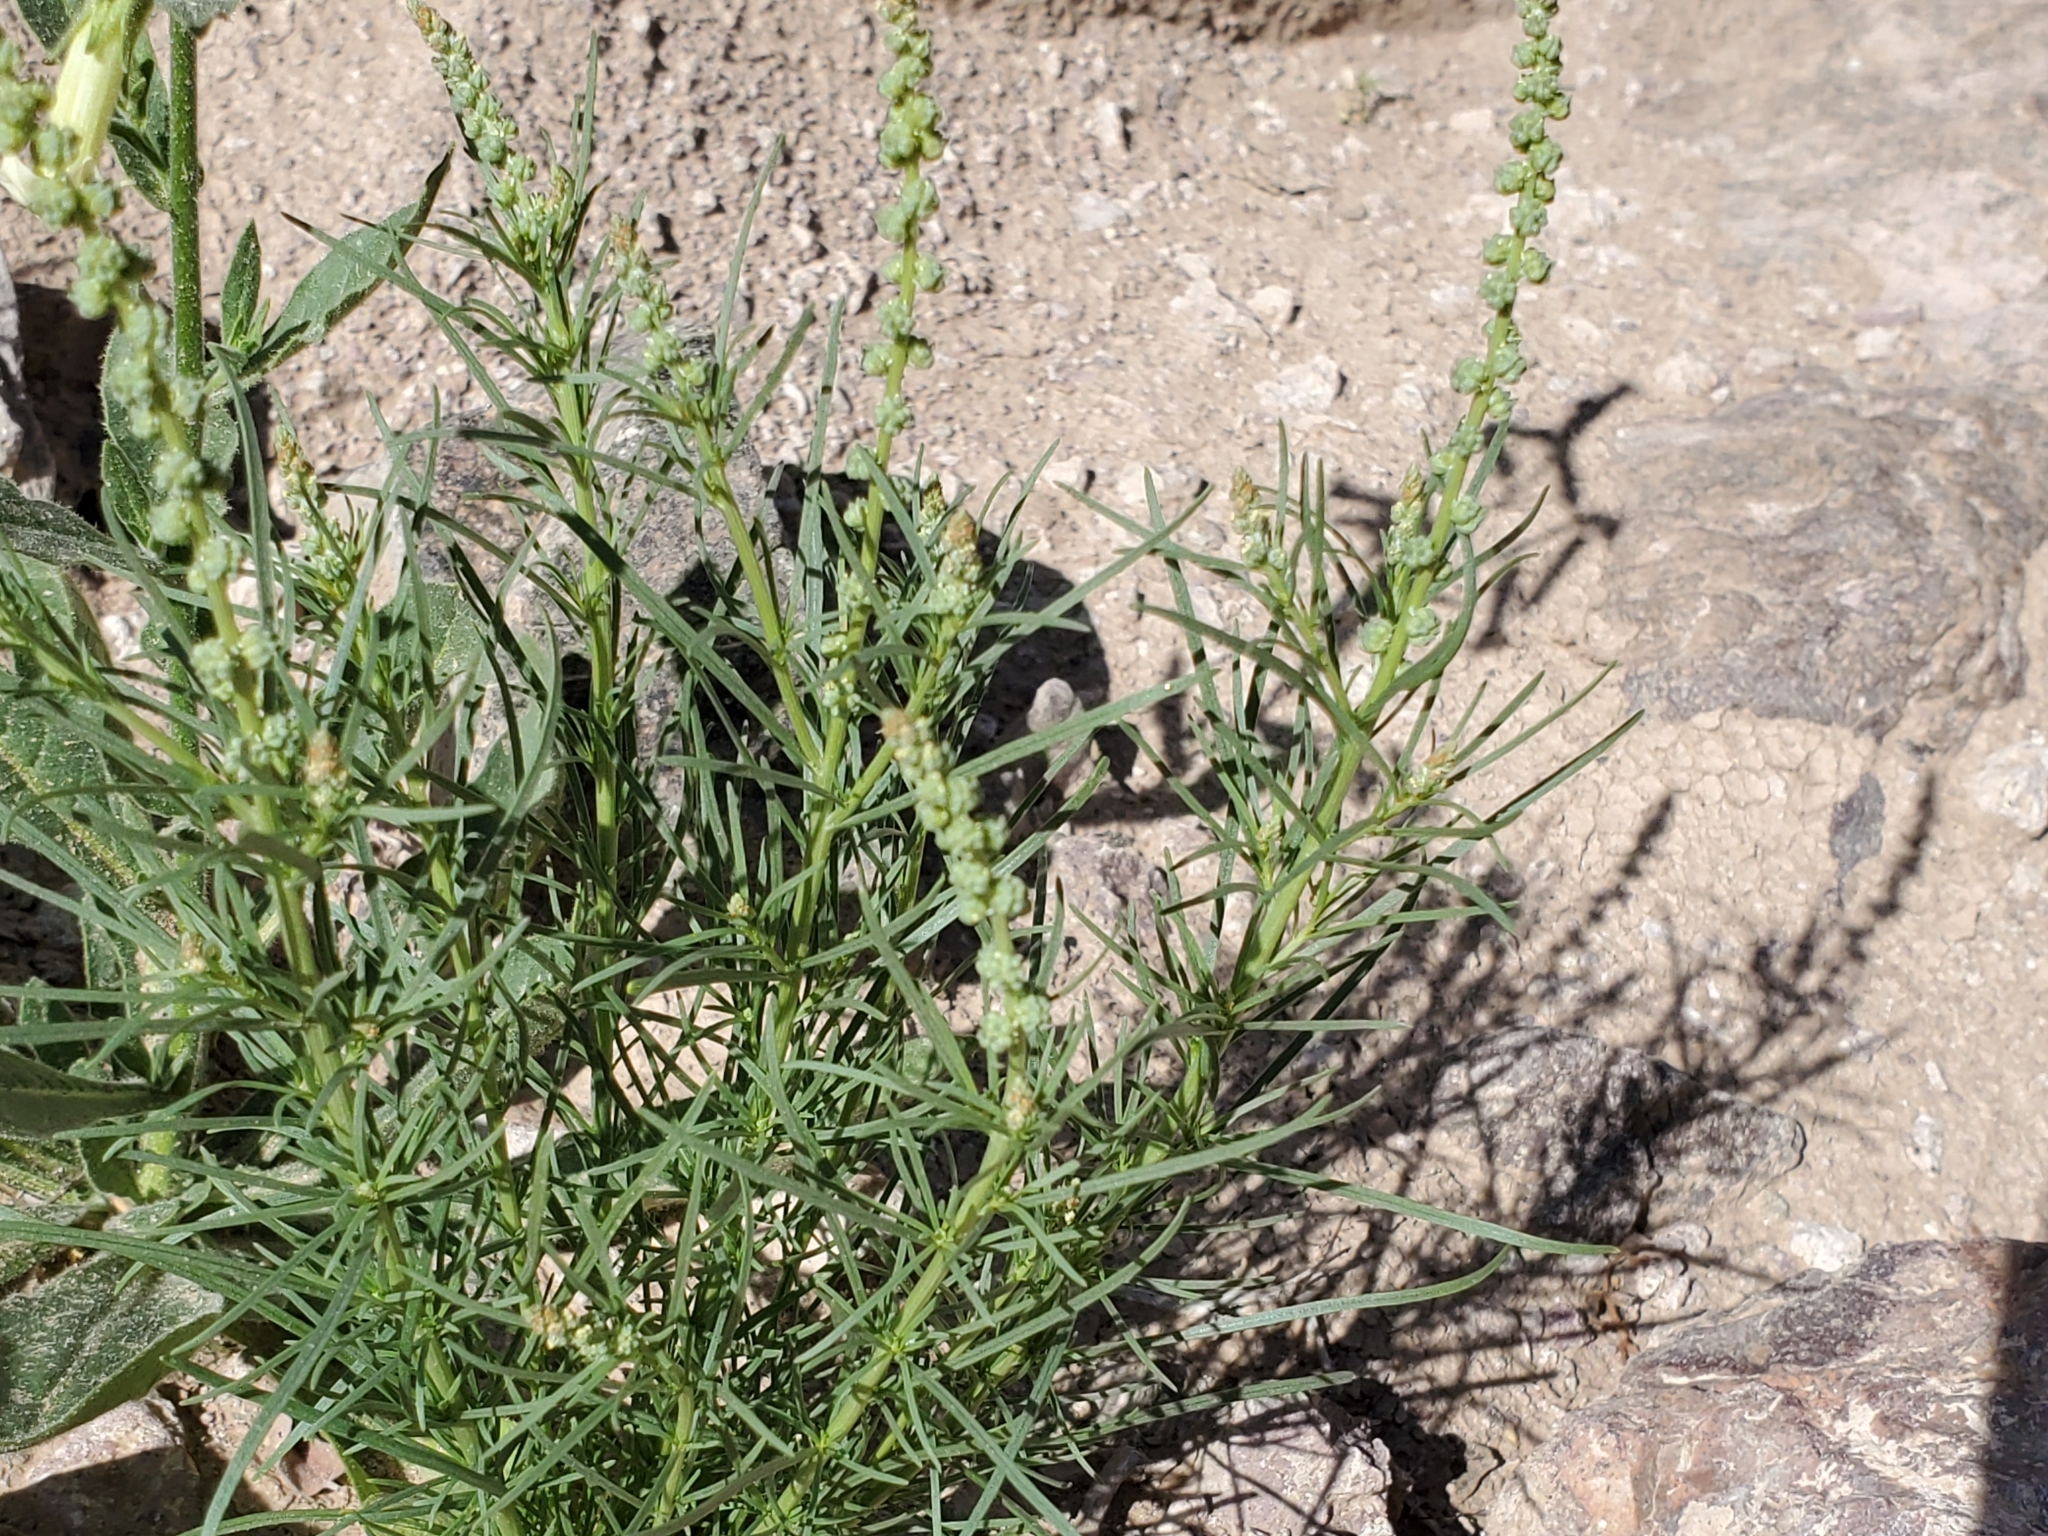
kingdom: Plantae
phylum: Tracheophyta
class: Magnoliopsida
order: Brassicales
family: Resedaceae
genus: Oligomeris
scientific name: Oligomeris linifolia
